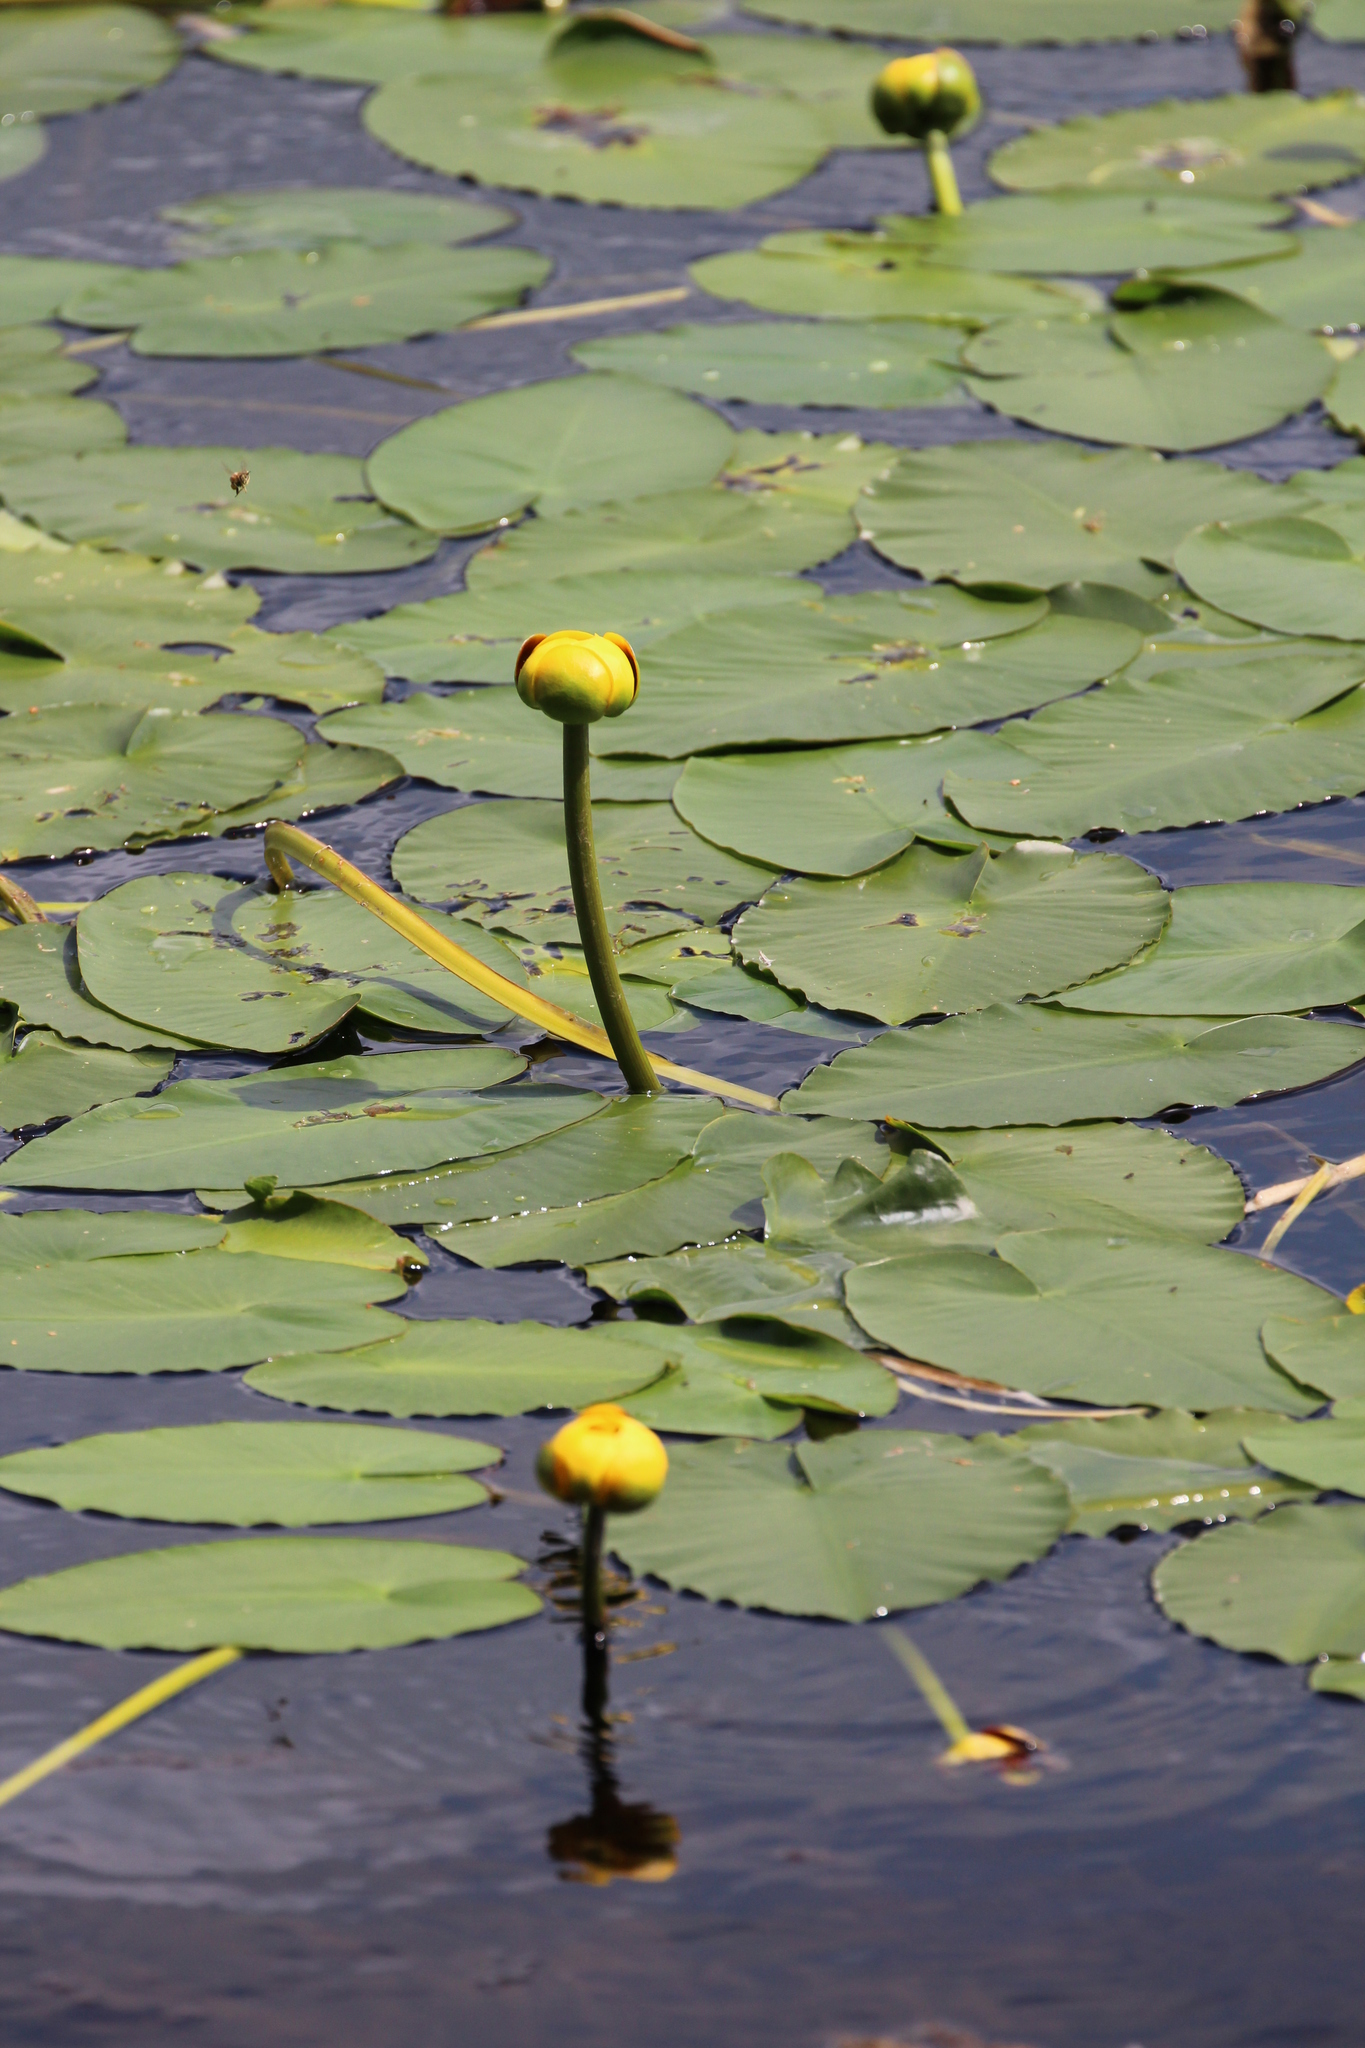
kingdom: Plantae
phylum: Tracheophyta
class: Magnoliopsida
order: Nymphaeales
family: Nymphaeaceae
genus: Nuphar
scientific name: Nuphar variegata
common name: Beaver-root
